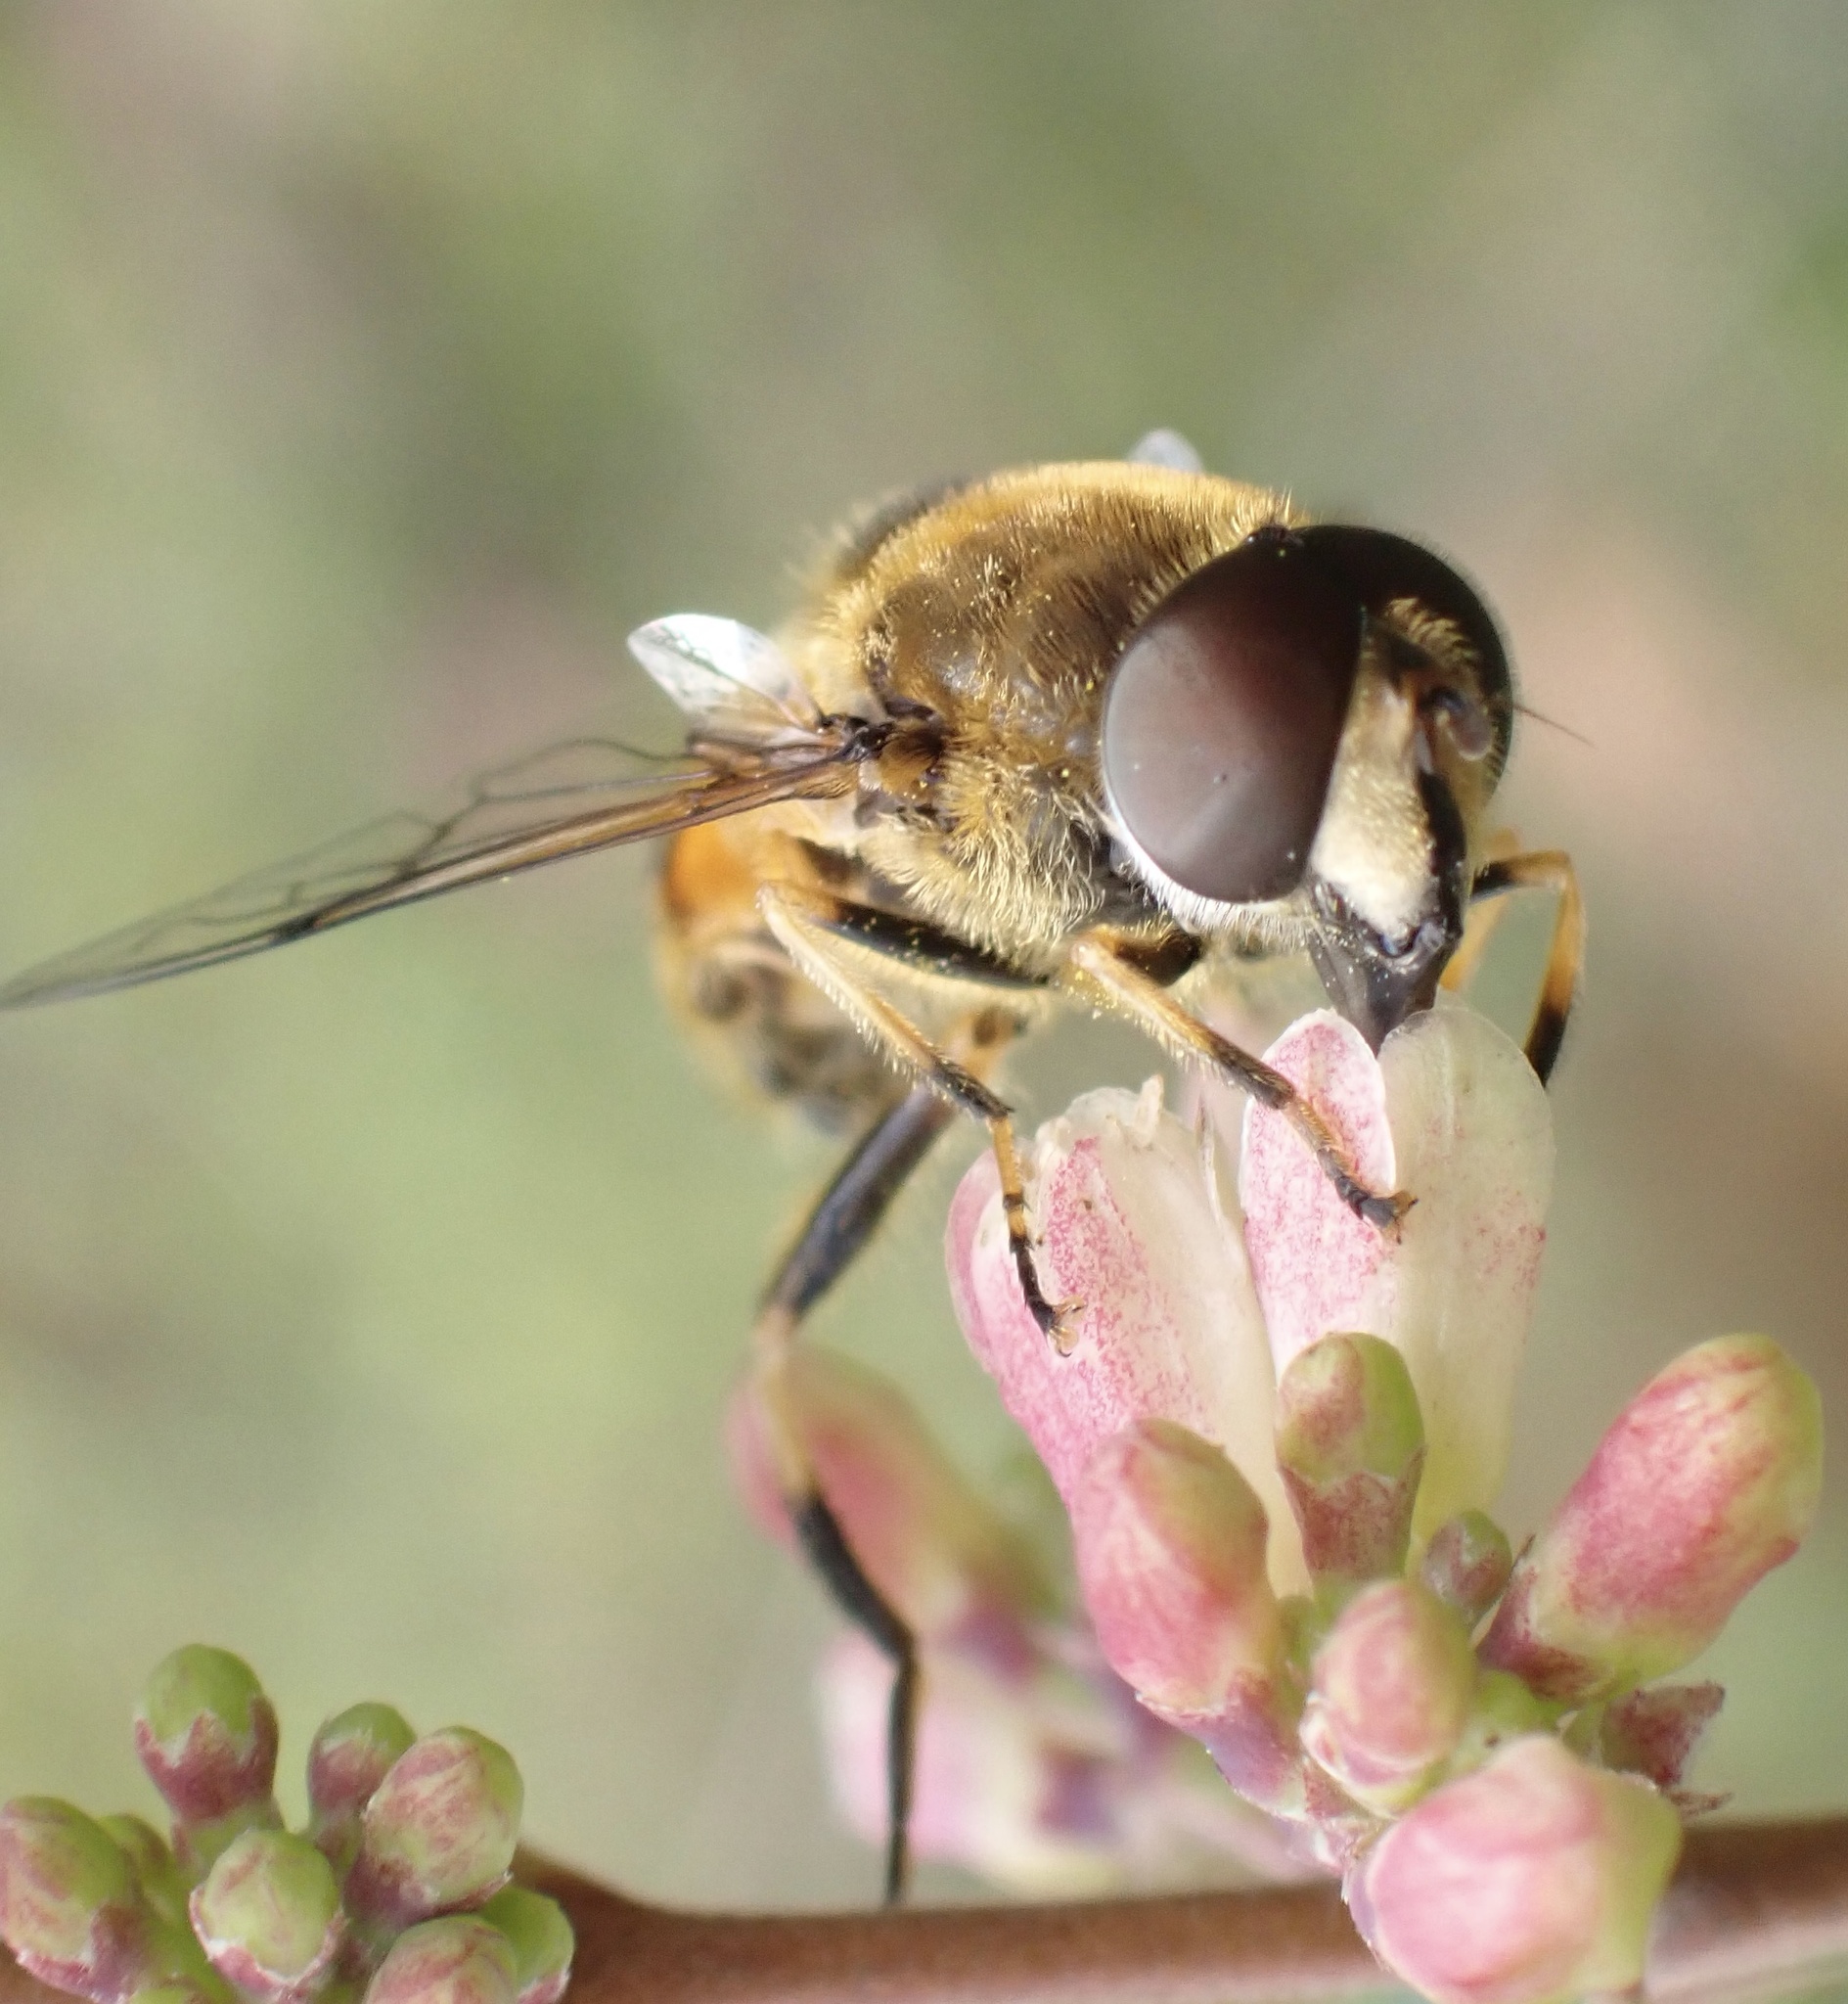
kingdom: Animalia
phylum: Arthropoda
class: Insecta
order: Diptera
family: Syrphidae
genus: Cheilosia
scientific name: Cheilosia morio
